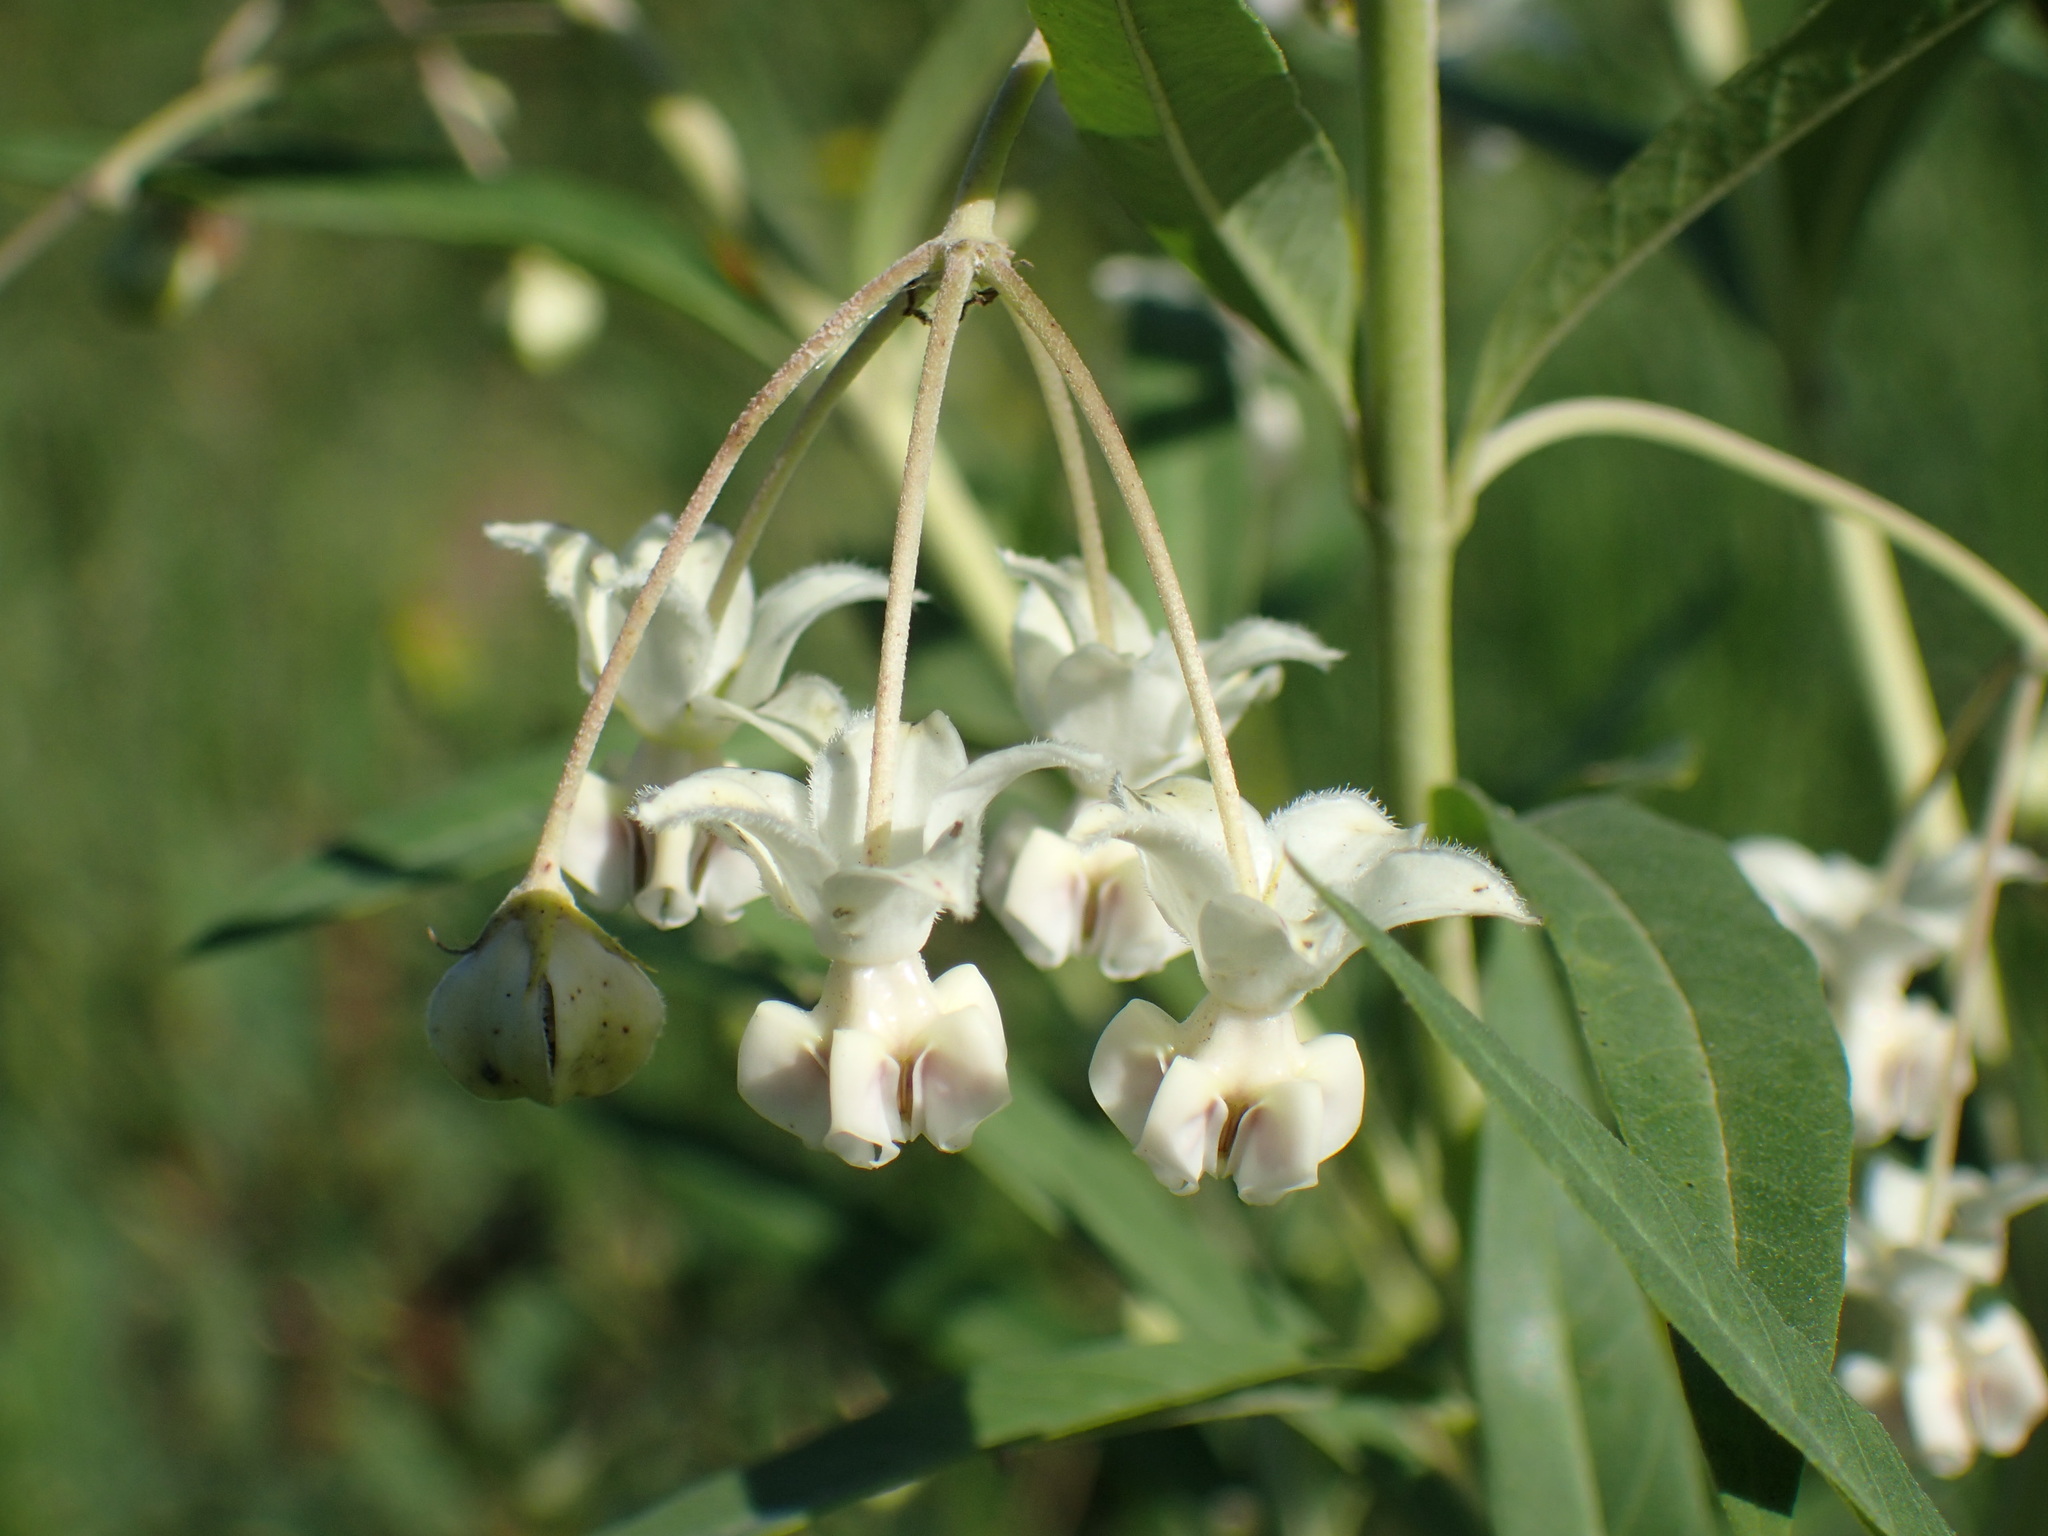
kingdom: Plantae
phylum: Tracheophyta
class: Magnoliopsida
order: Gentianales
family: Apocynaceae
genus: Gomphocarpus
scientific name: Gomphocarpus physocarpus
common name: Balloon cotton bush
